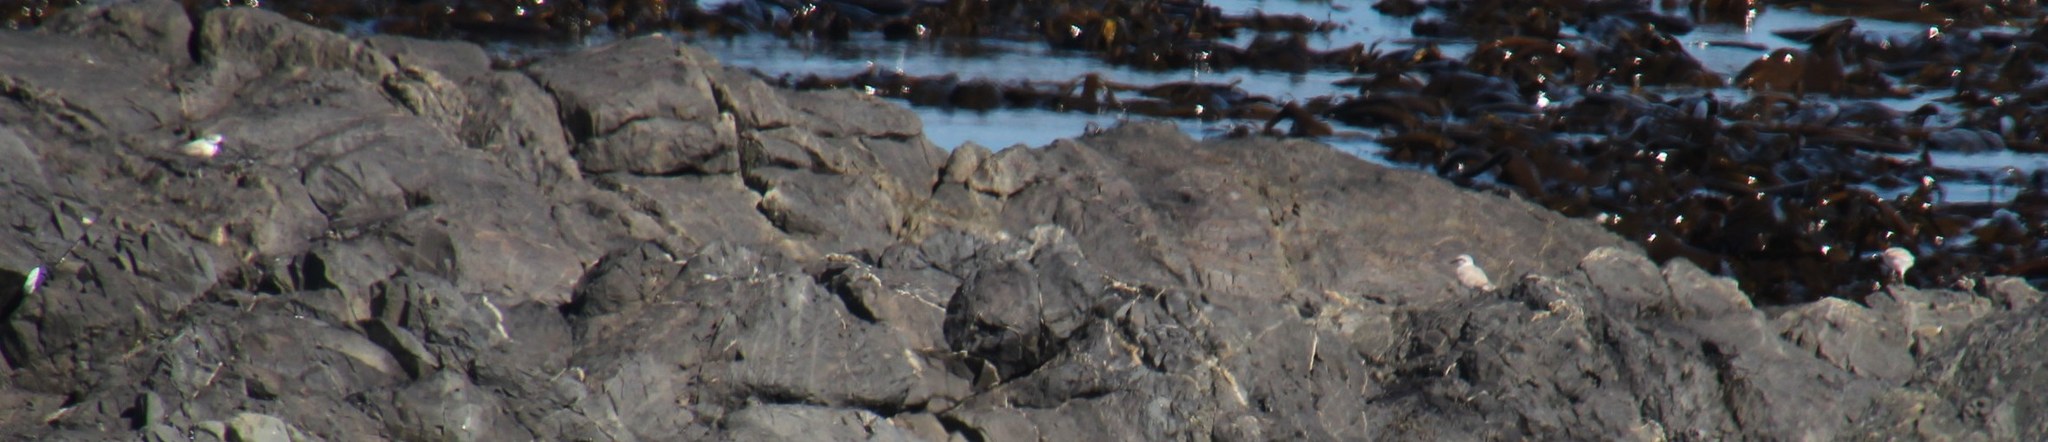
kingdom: Animalia
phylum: Chordata
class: Aves
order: Charadriiformes
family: Charadriidae
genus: Anarhynchus
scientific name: Anarhynchus
